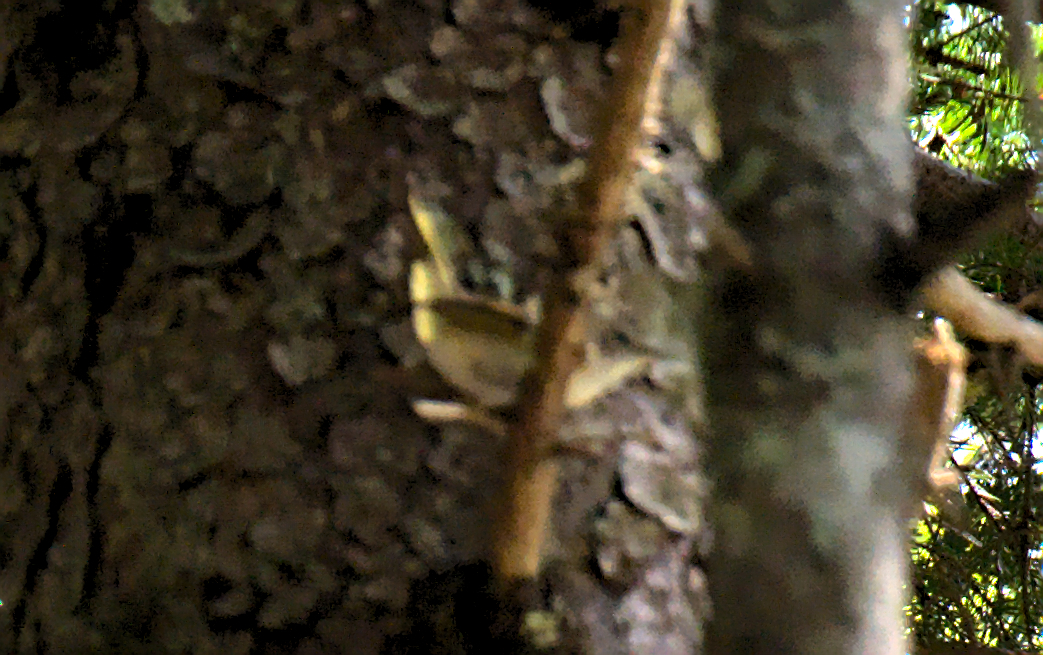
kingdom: Animalia
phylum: Chordata
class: Aves
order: Passeriformes
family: Parulidae
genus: Setophaga
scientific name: Setophaga ruticilla
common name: American redstart
